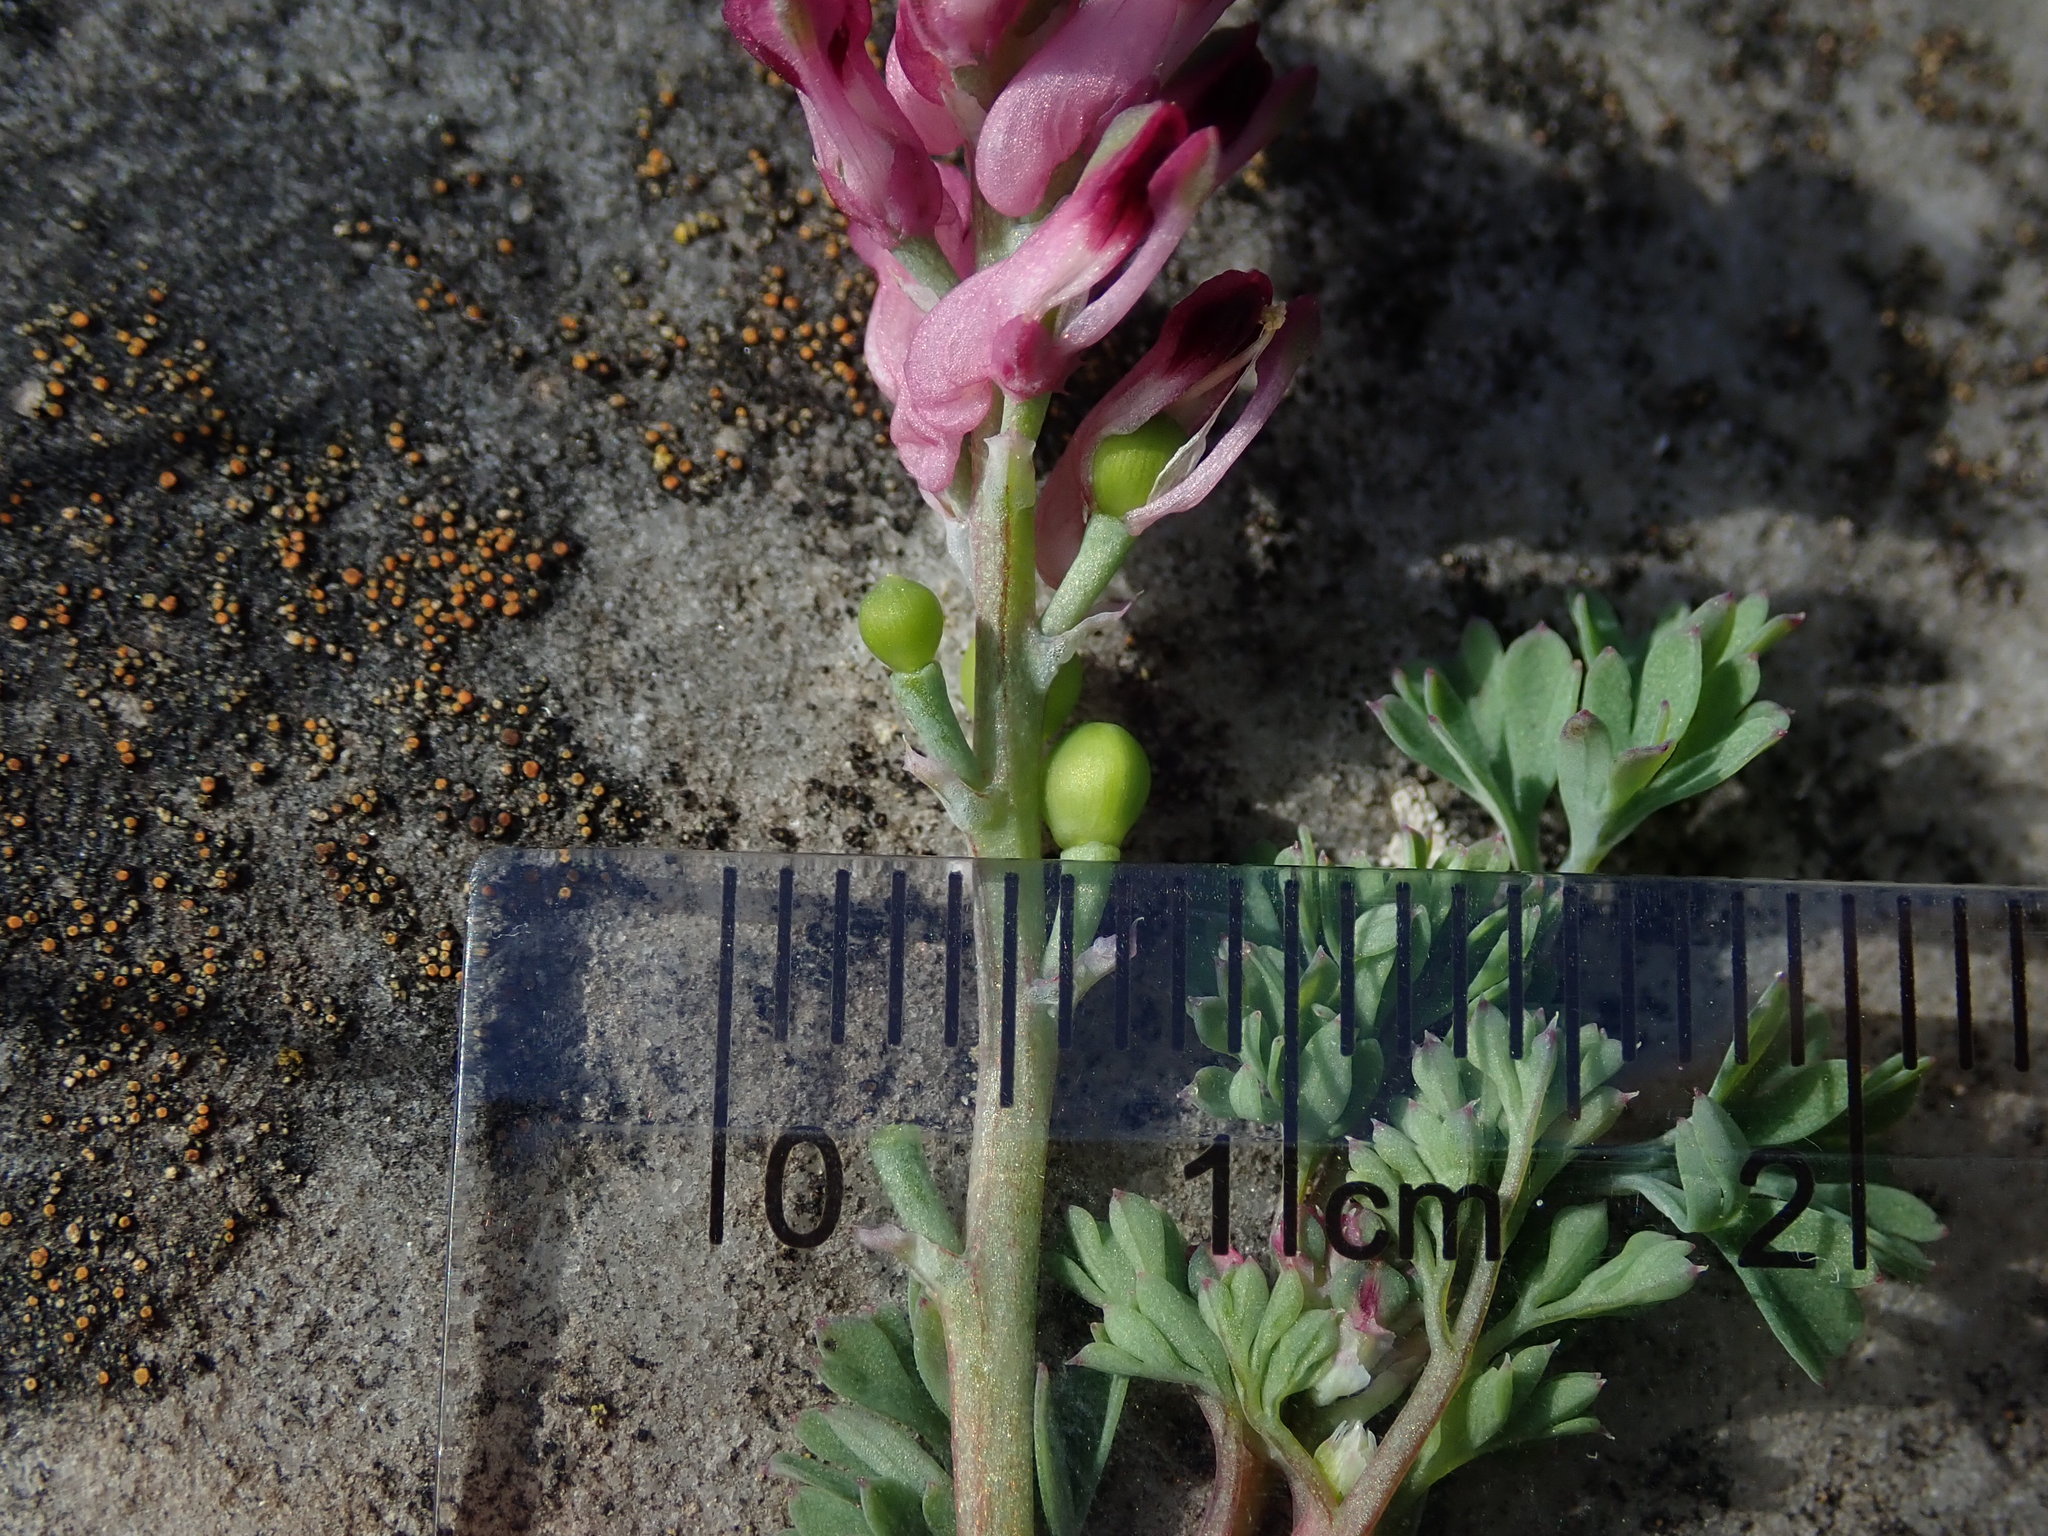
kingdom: Plantae
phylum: Tracheophyta
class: Magnoliopsida
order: Ranunculales
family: Papaveraceae
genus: Fumaria
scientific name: Fumaria wirtgenii
